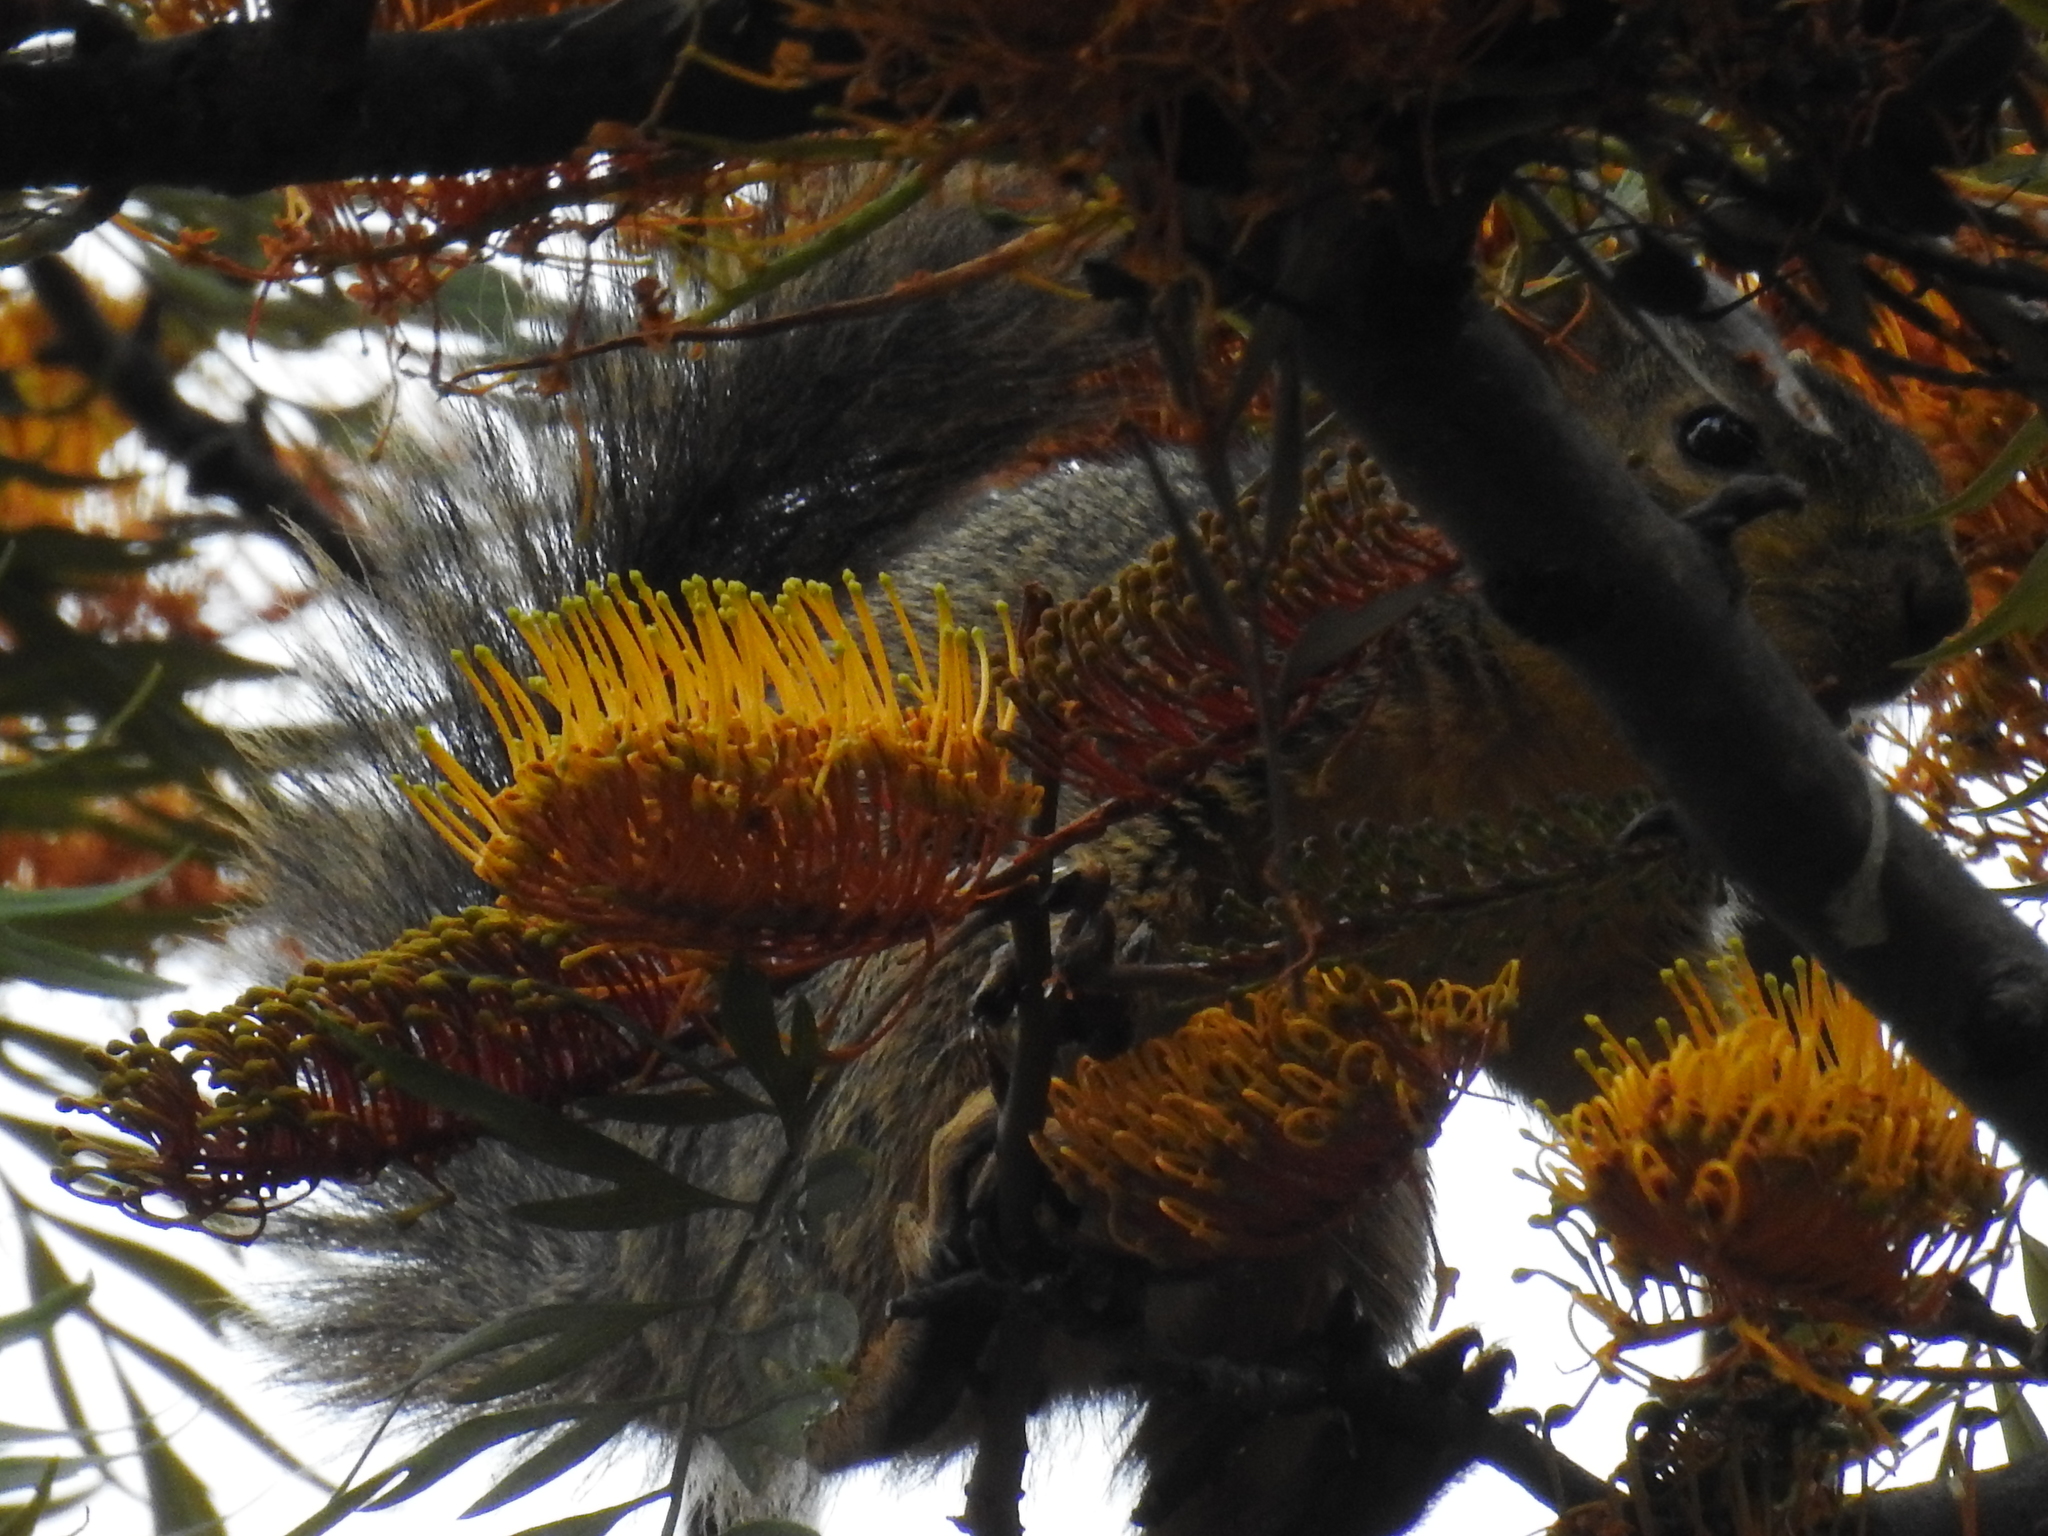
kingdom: Animalia
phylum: Chordata
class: Mammalia
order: Rodentia
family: Sciuridae
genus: Sciurus
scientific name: Sciurus niger
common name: Fox squirrel
